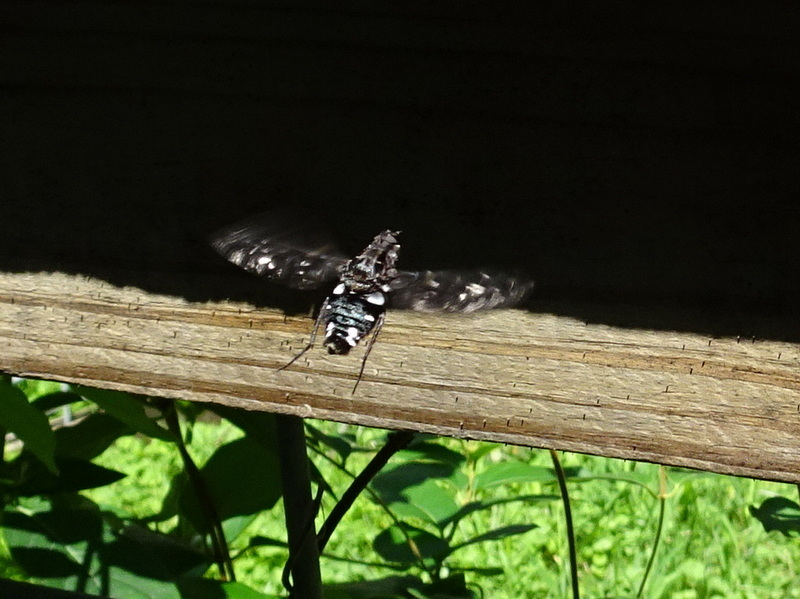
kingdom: Animalia
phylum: Arthropoda
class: Insecta
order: Diptera
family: Bombyliidae
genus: Xenox
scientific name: Xenox tigrinus
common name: Tiger bee fly
